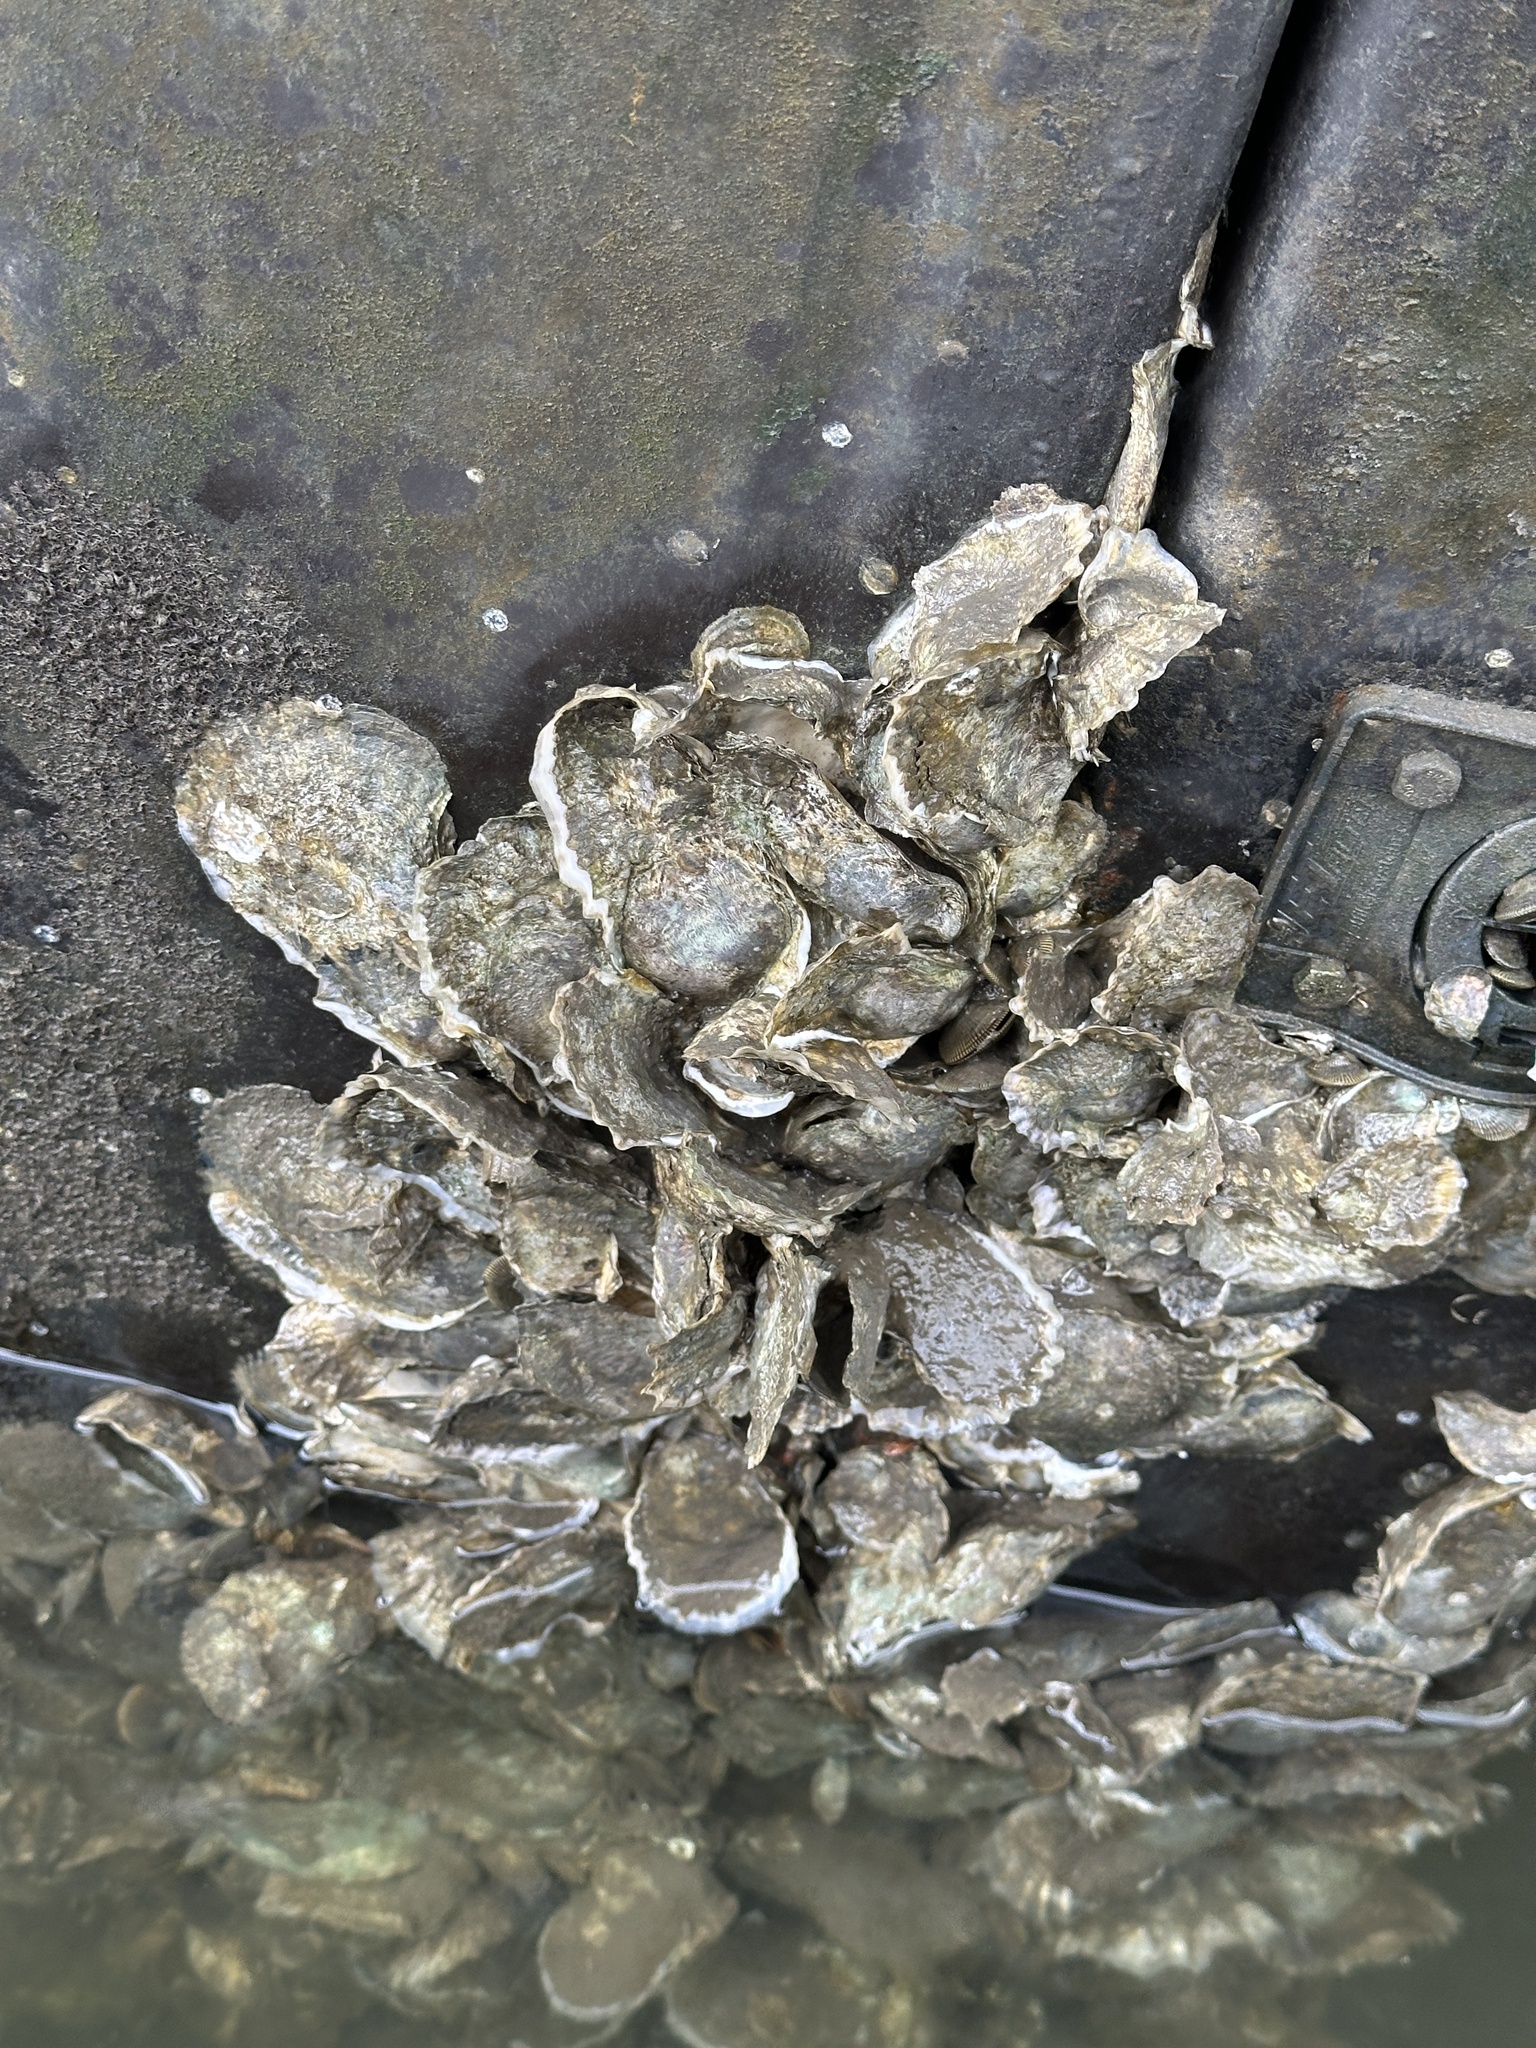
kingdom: Animalia
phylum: Mollusca
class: Bivalvia
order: Ostreida
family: Ostreidae
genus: Crassostrea
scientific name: Crassostrea virginica
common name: American oyster
